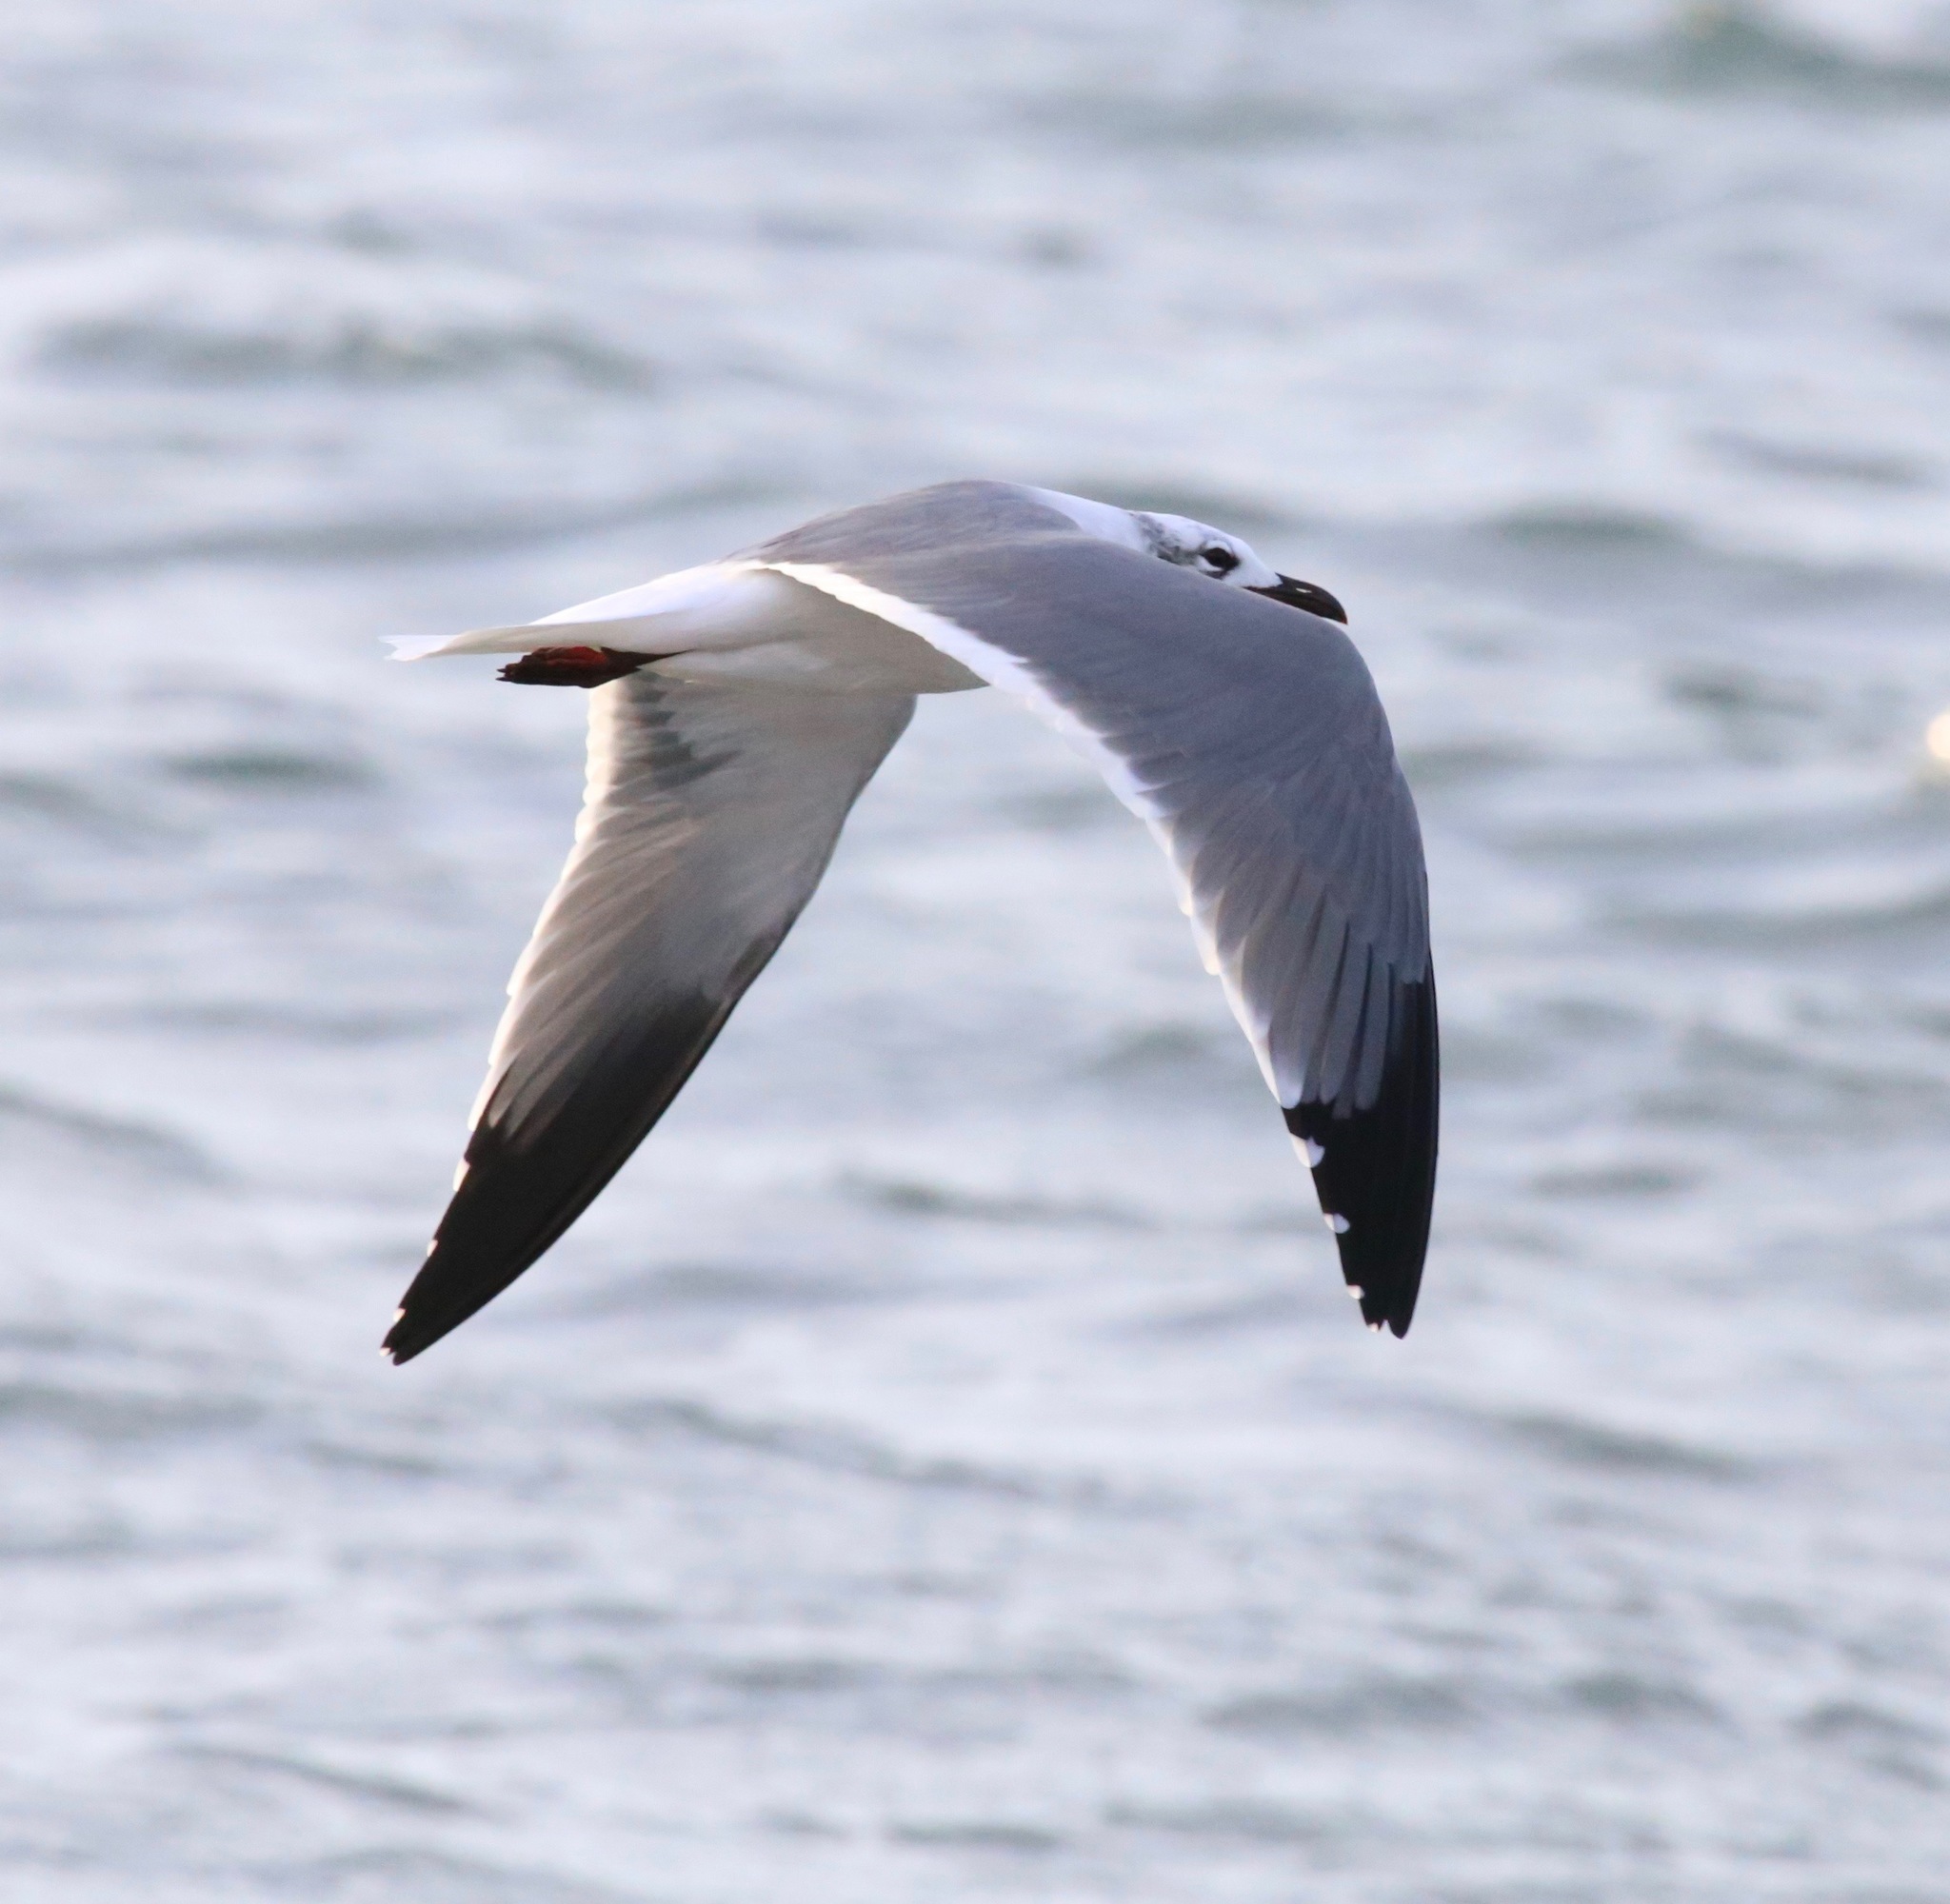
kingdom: Animalia
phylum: Chordata
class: Aves
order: Charadriiformes
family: Laridae
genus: Leucophaeus
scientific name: Leucophaeus atricilla
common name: Laughing gull
